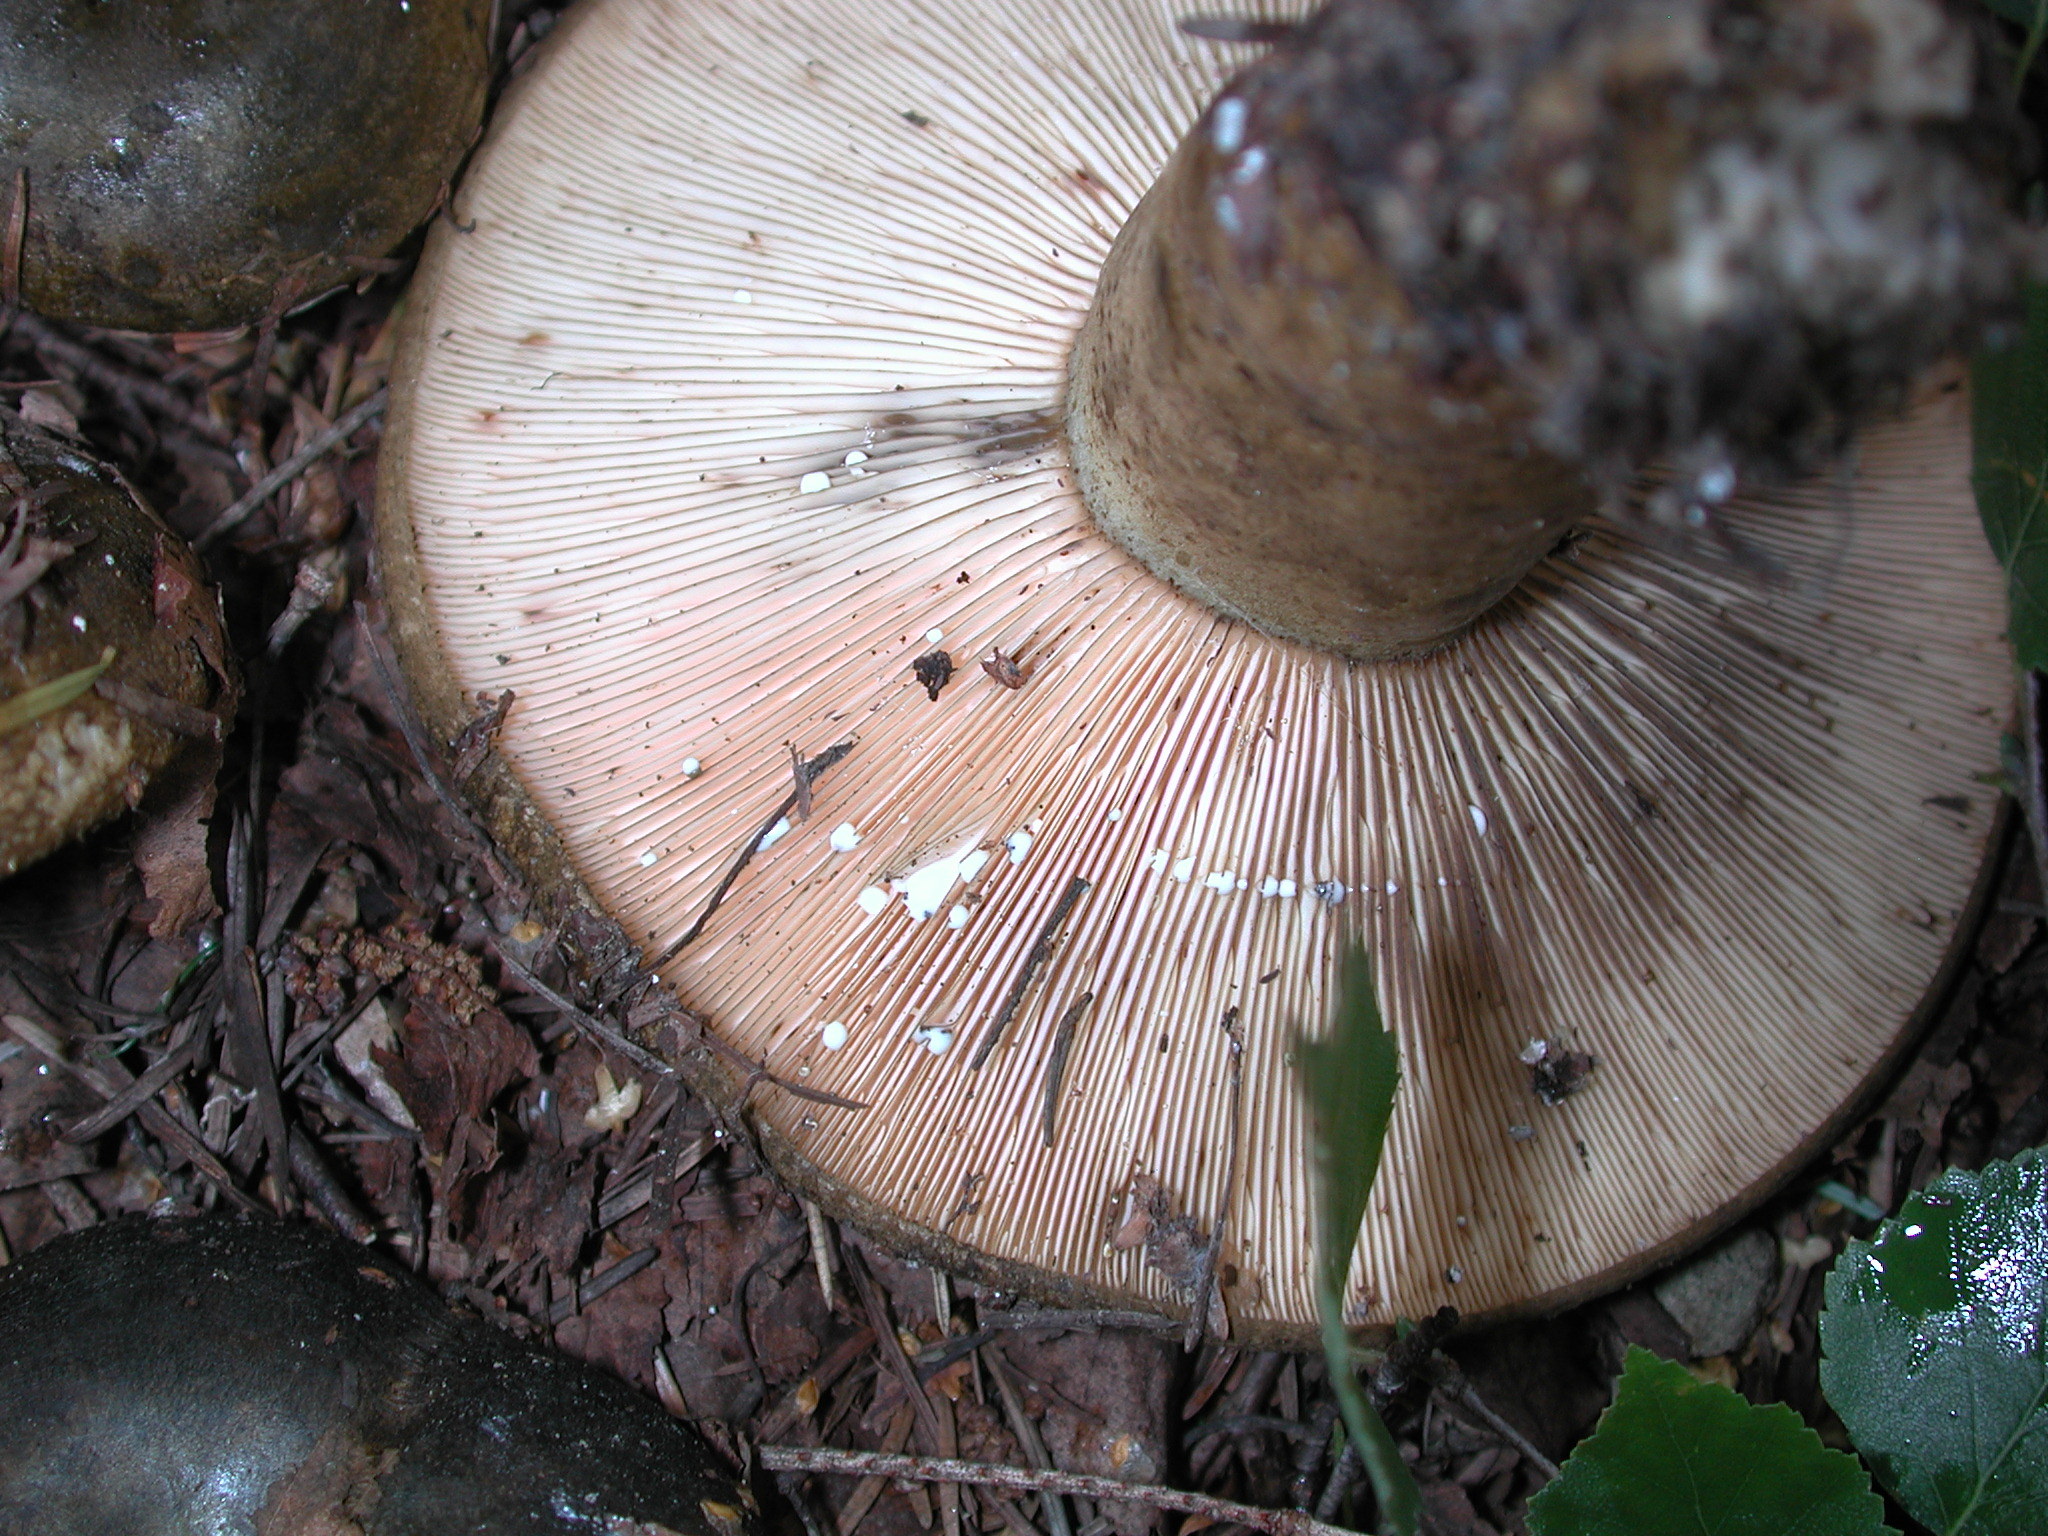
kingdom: Fungi
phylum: Basidiomycota
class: Agaricomycetes
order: Russulales
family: Russulaceae
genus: Lactarius
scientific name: Lactarius turpis
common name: Ugly milk-cap
